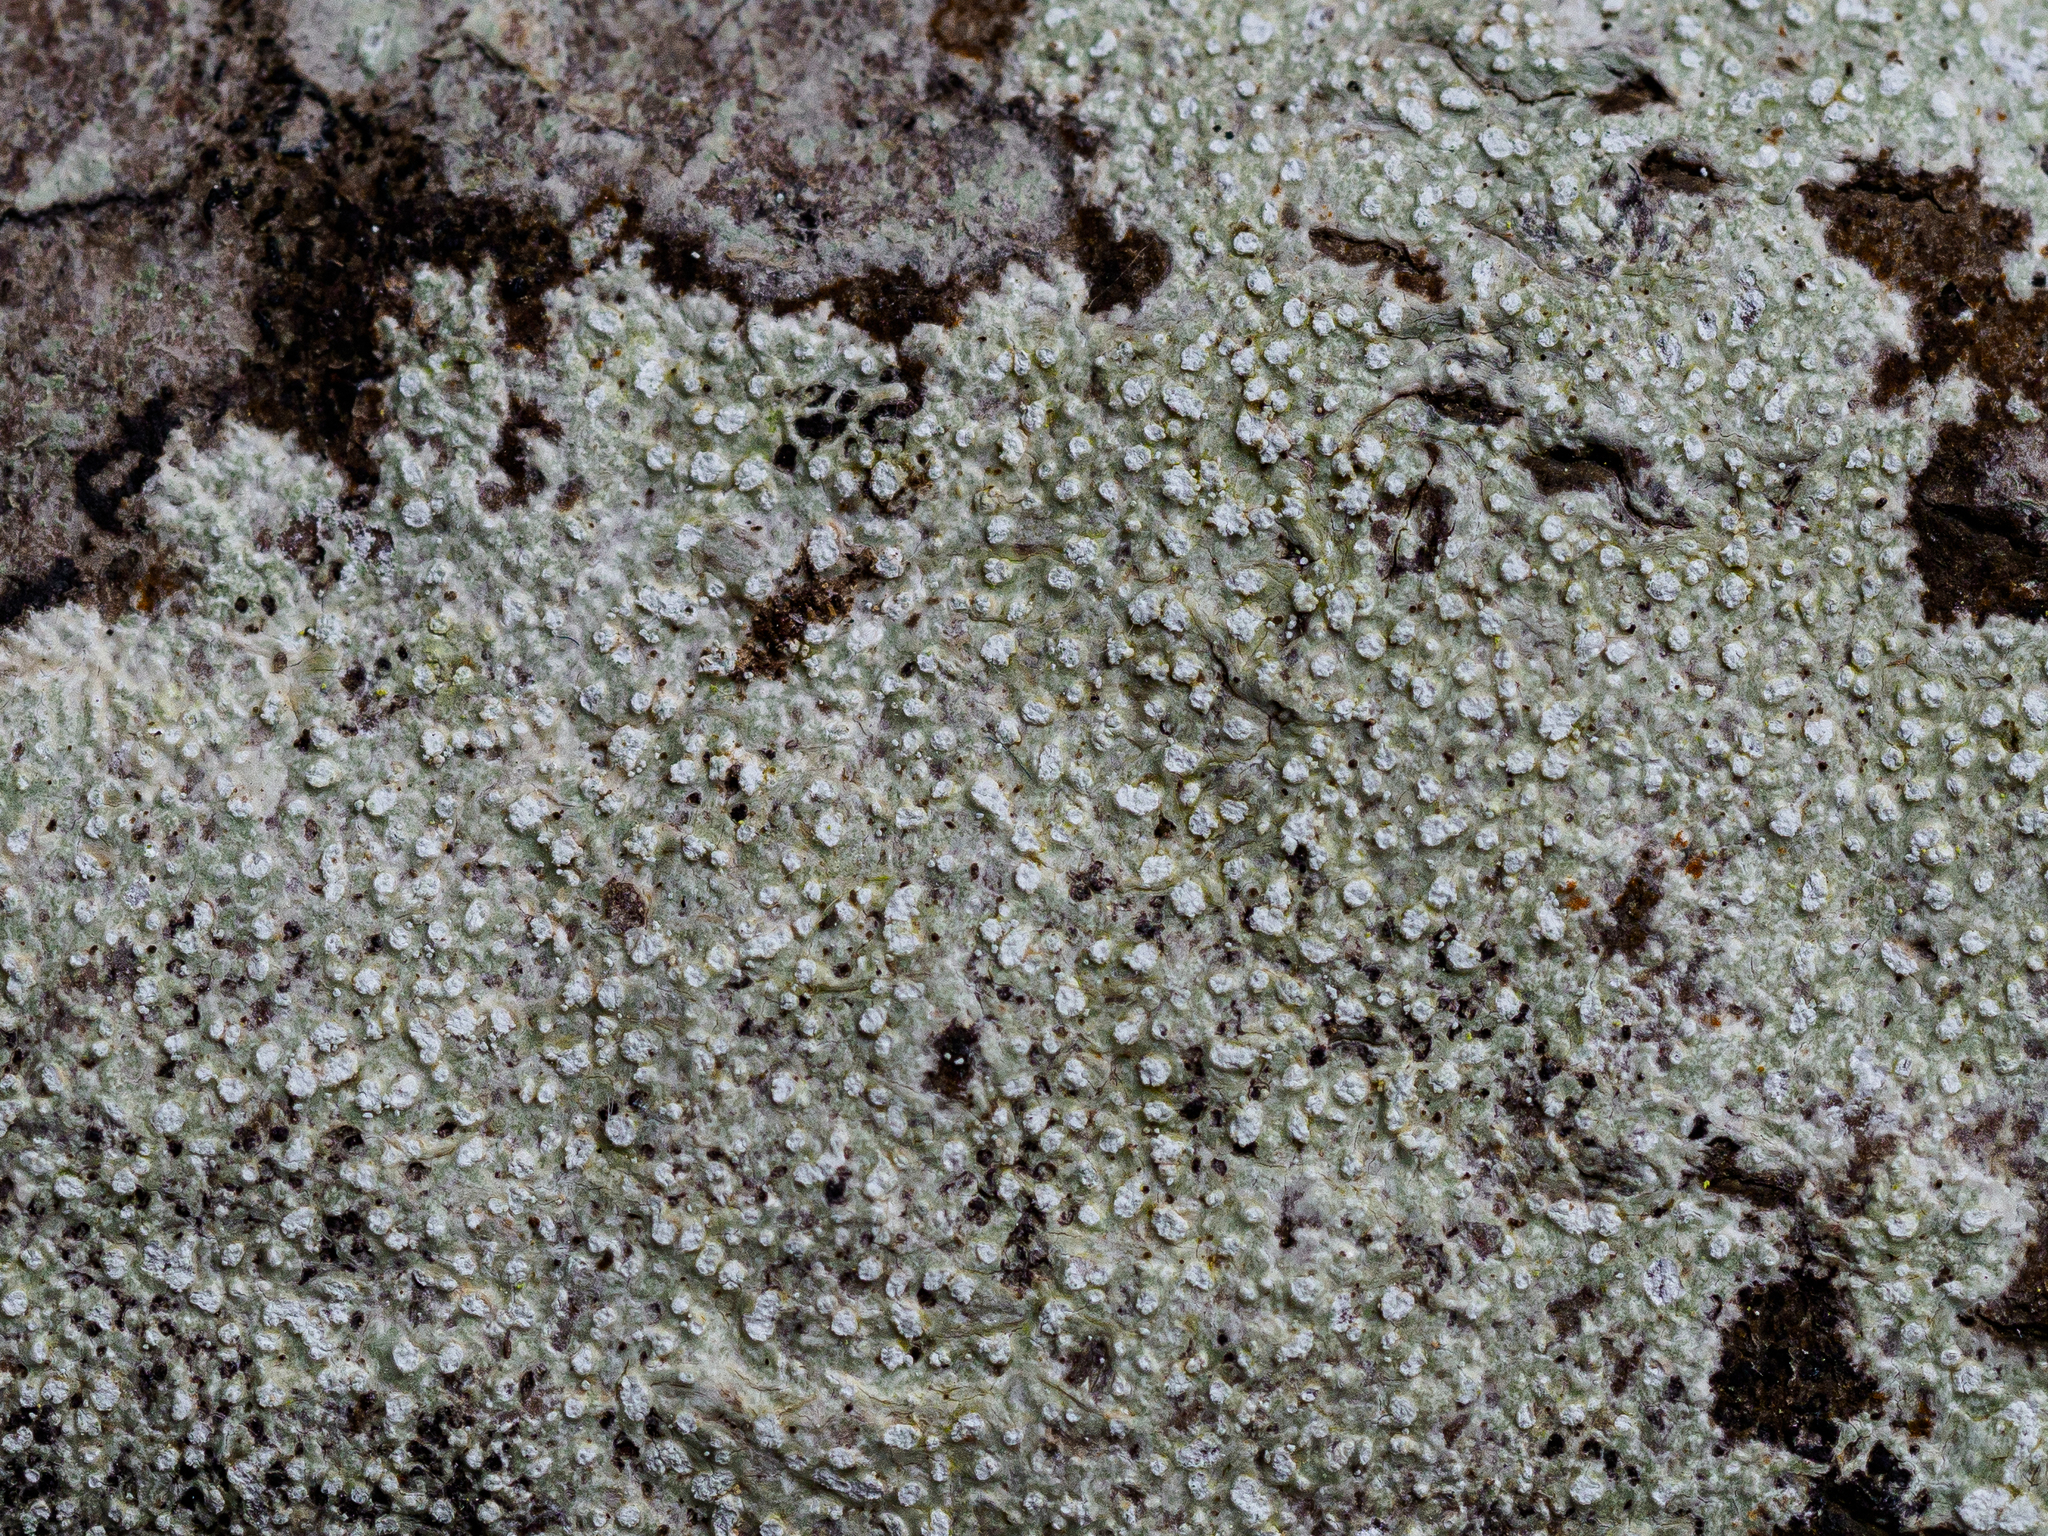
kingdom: Fungi
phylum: Ascomycota
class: Lecanoromycetes
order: Pertusariales
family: Pertusariaceae
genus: Lepra
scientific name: Lepra amara
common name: Bitter wart lichen
